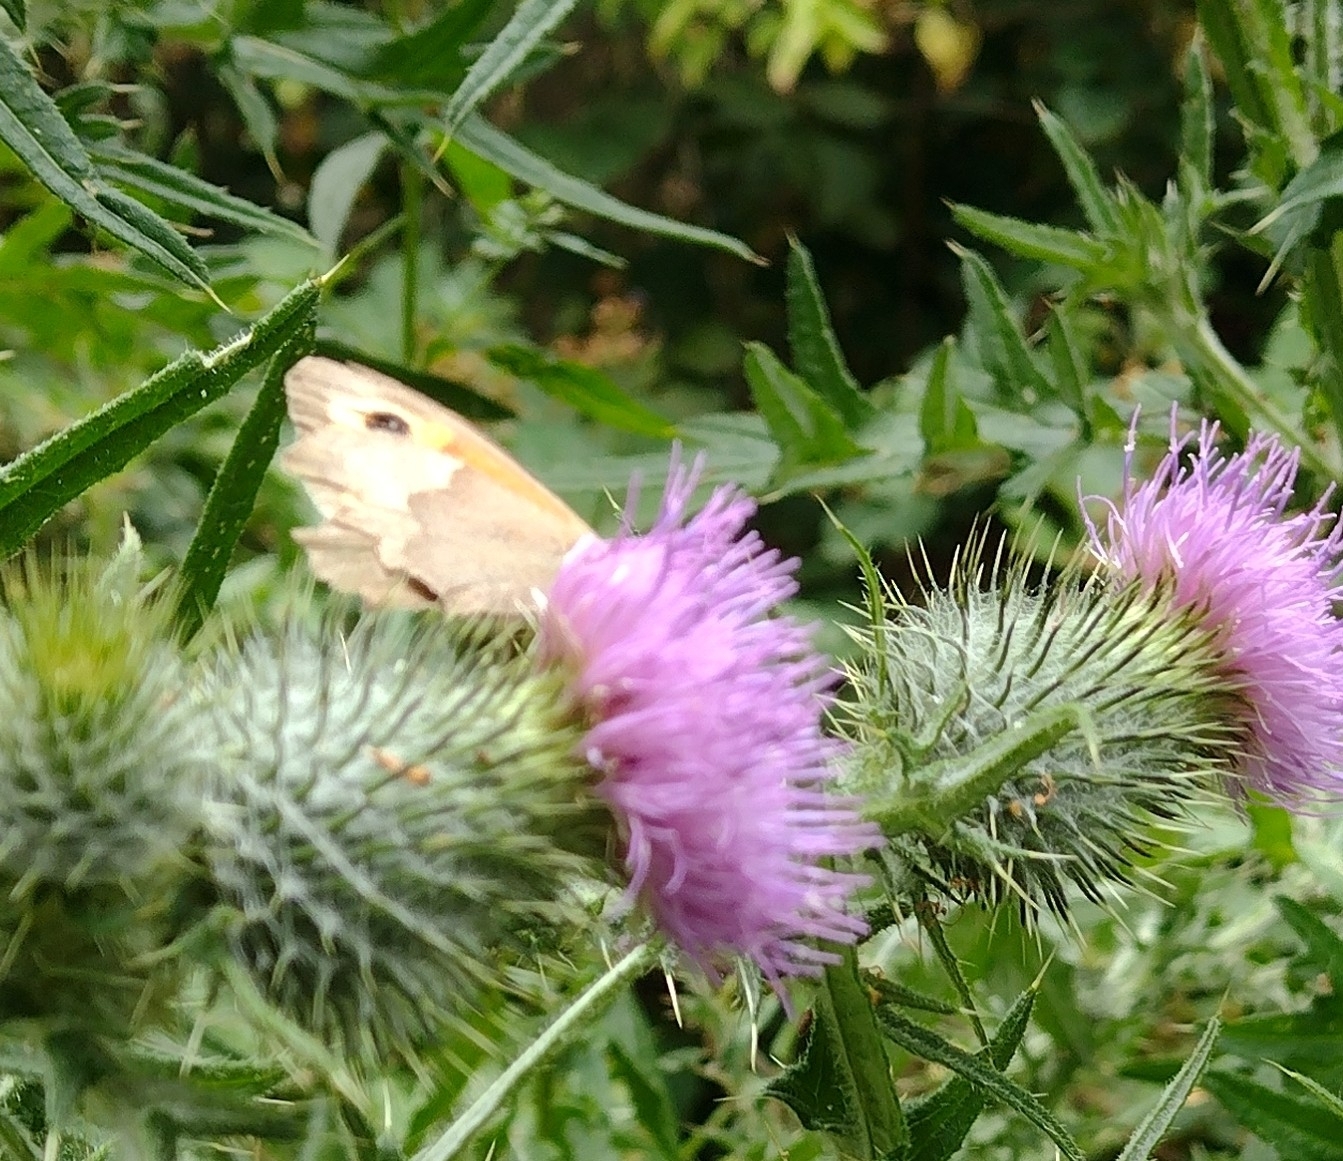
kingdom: Animalia
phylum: Arthropoda
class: Insecta
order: Lepidoptera
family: Nymphalidae
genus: Maniola
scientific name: Maniola jurtina
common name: Meadow brown
